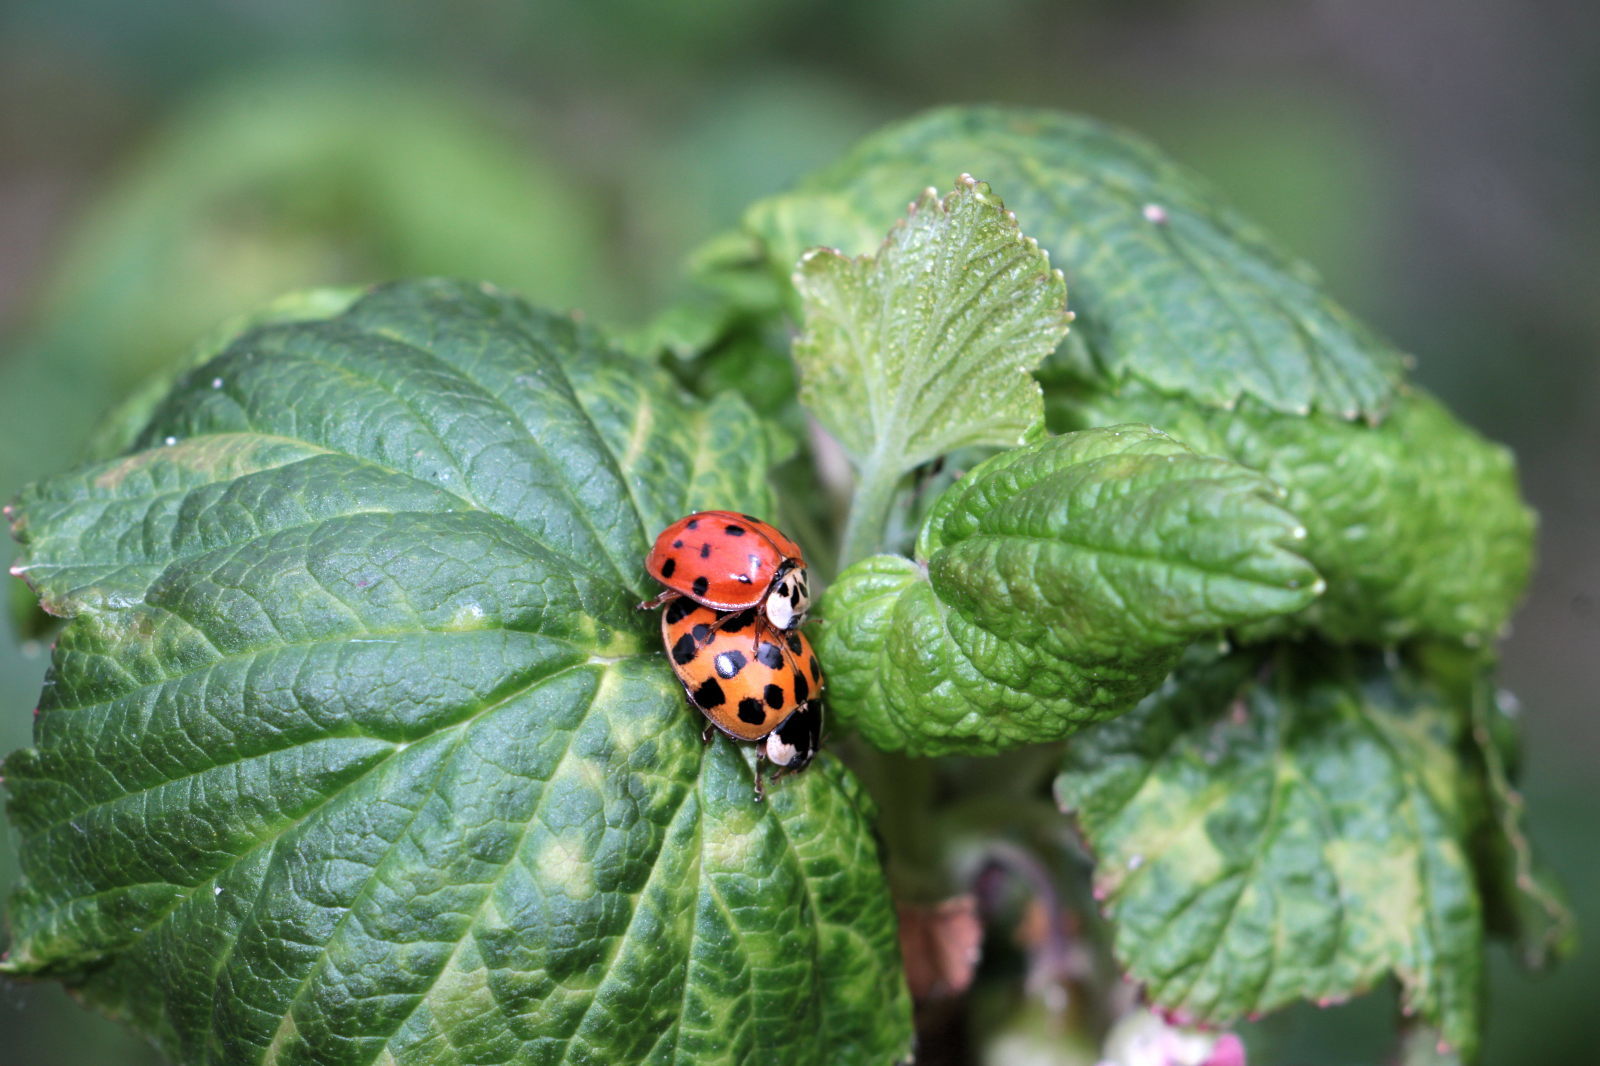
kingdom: Animalia
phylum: Arthropoda
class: Insecta
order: Coleoptera
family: Coccinellidae
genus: Harmonia
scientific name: Harmonia axyridis
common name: Harlequin ladybird
